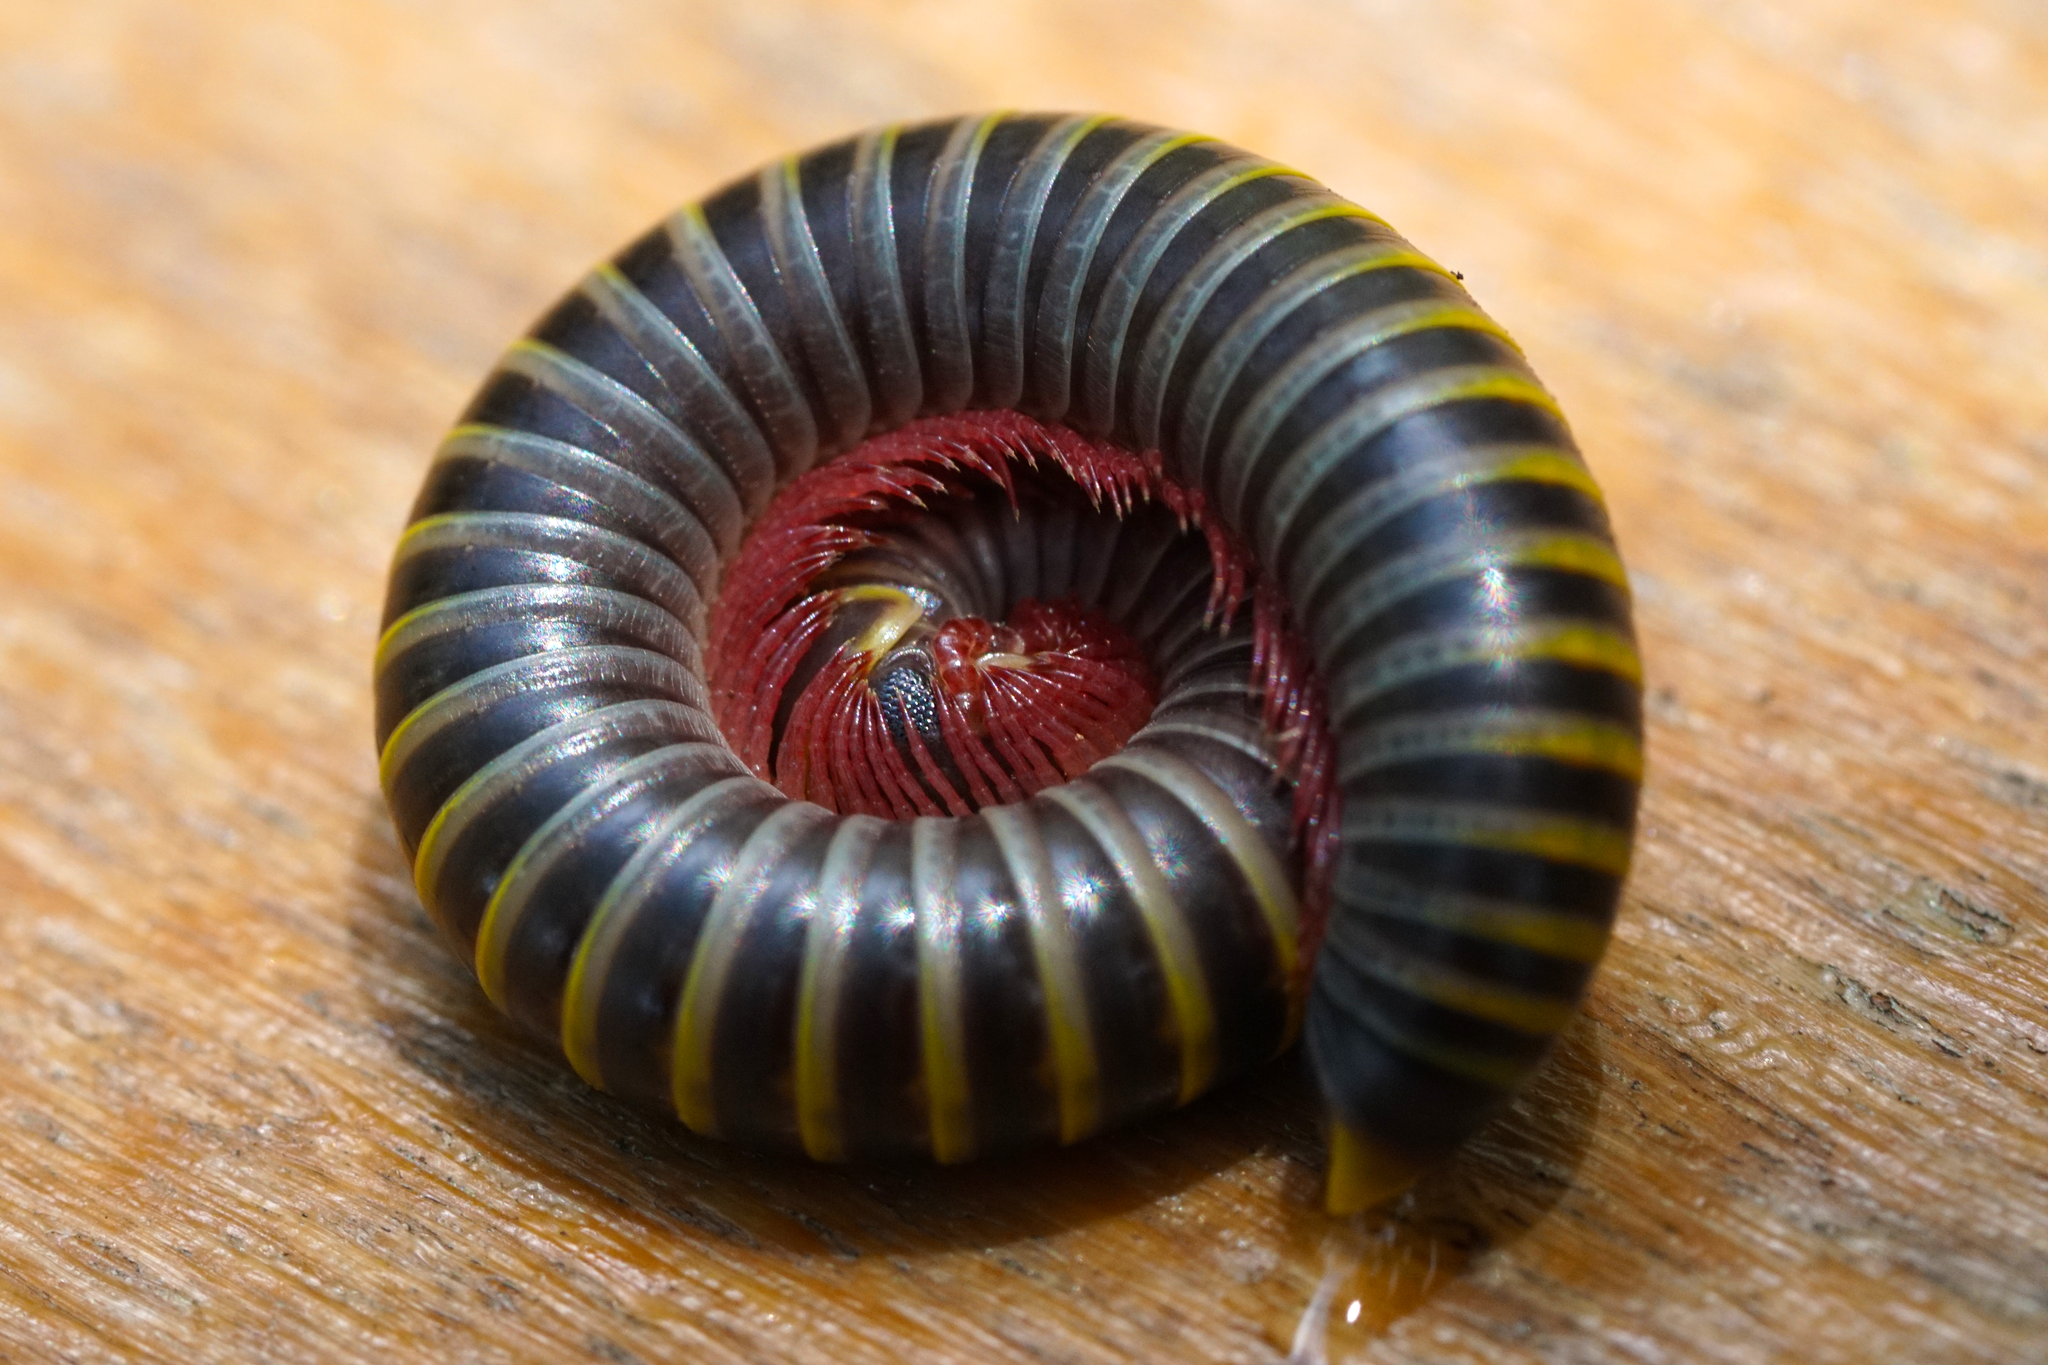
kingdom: Animalia
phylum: Arthropoda
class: Diplopoda
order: Spirobolida
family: Rhinocricidae
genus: Anadenobolus
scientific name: Anadenobolus monilicornis
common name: Caribbean millipede
